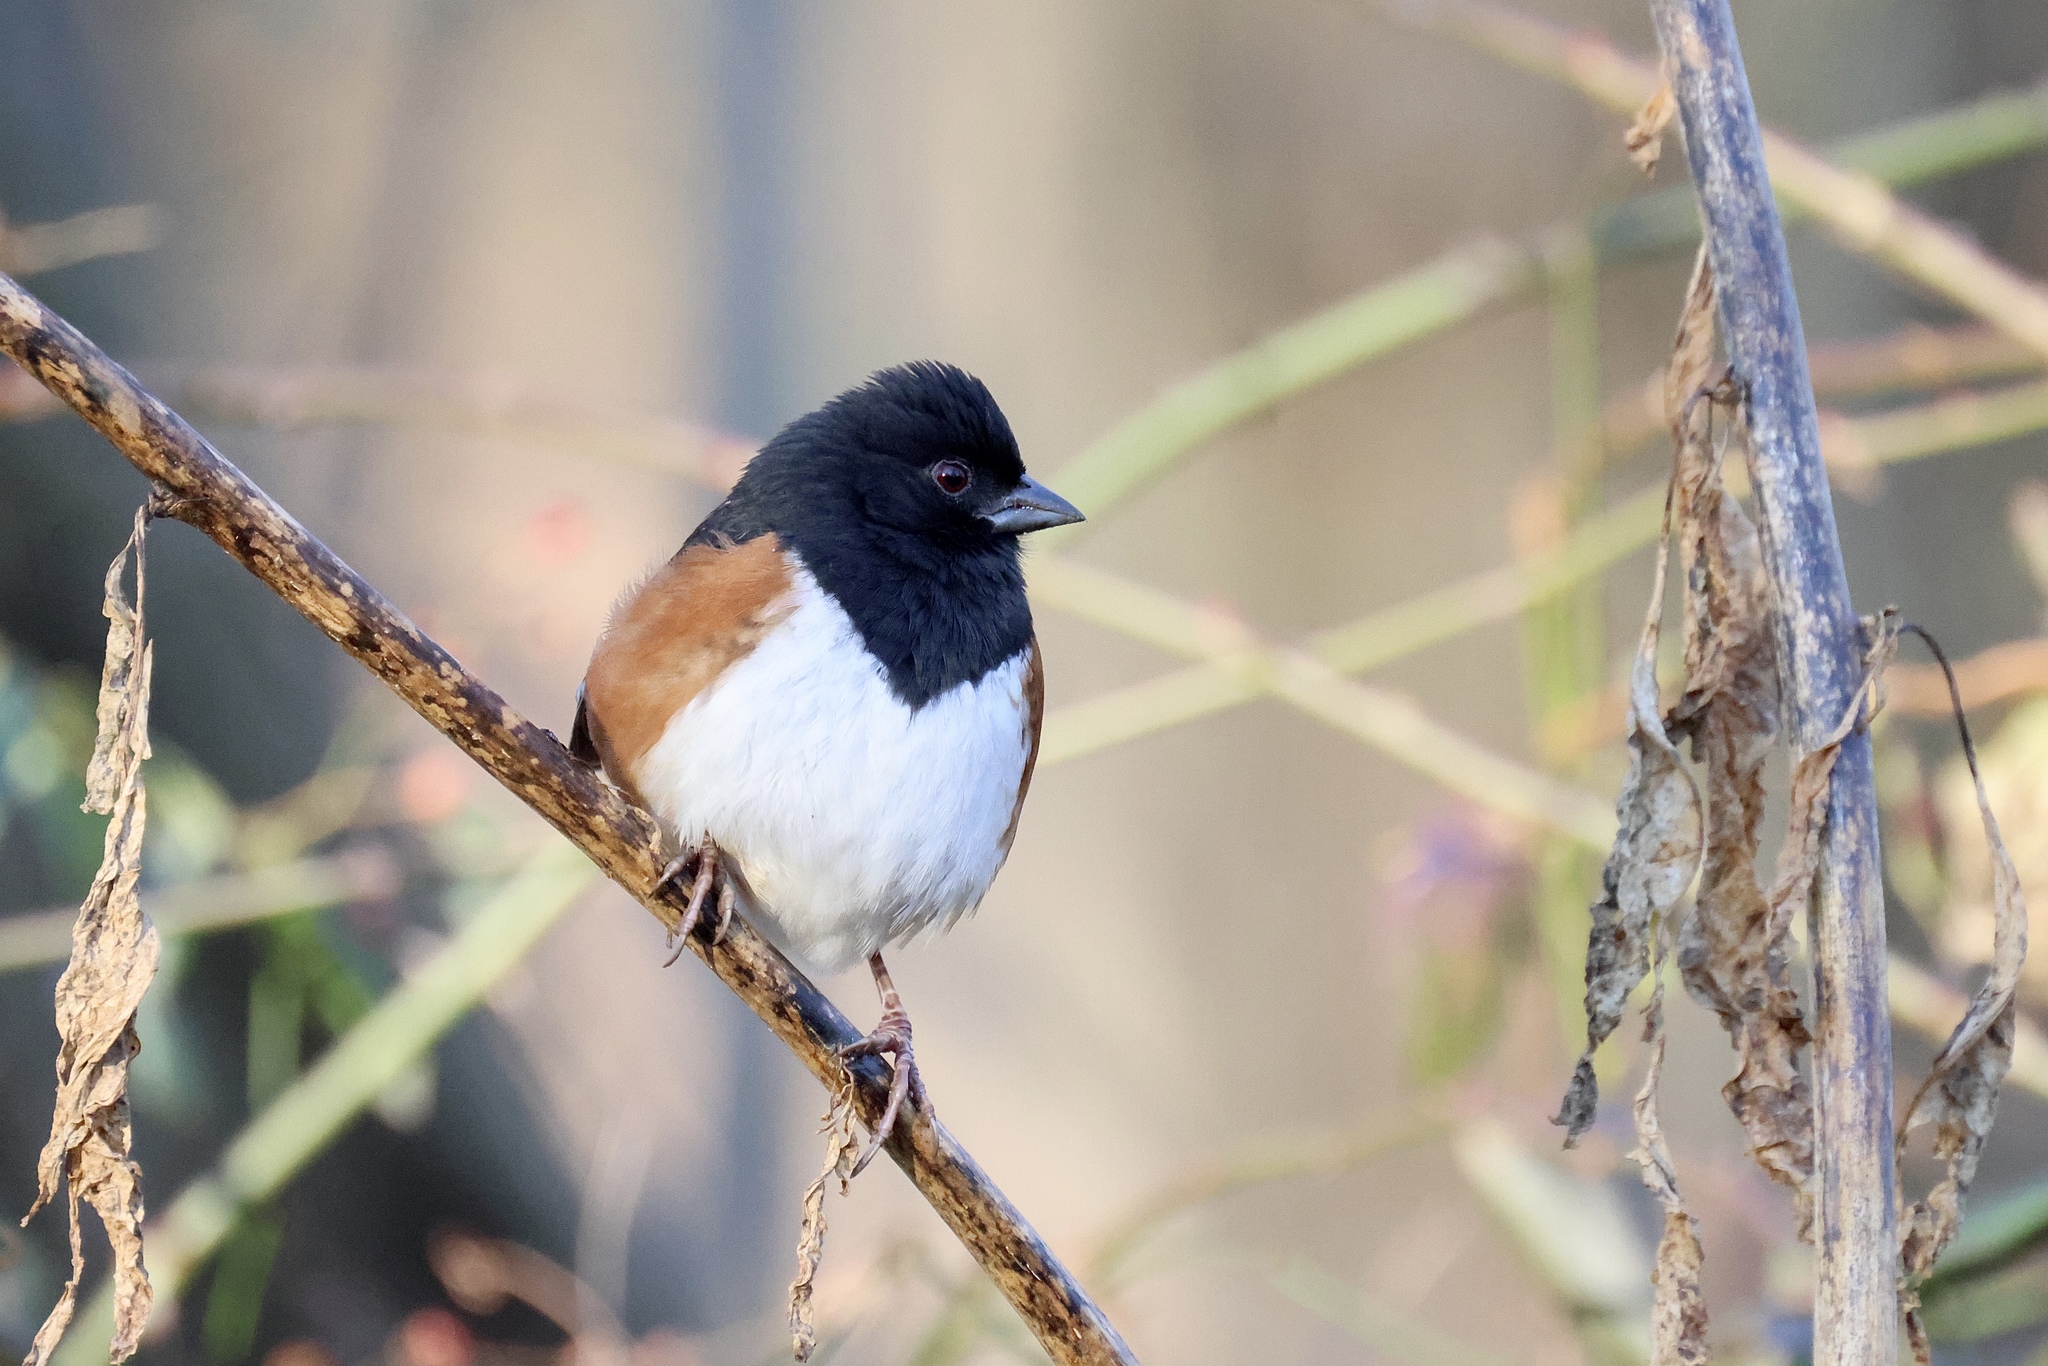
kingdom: Animalia
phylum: Chordata
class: Aves
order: Passeriformes
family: Passerellidae
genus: Pipilo
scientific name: Pipilo erythrophthalmus
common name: Eastern towhee
